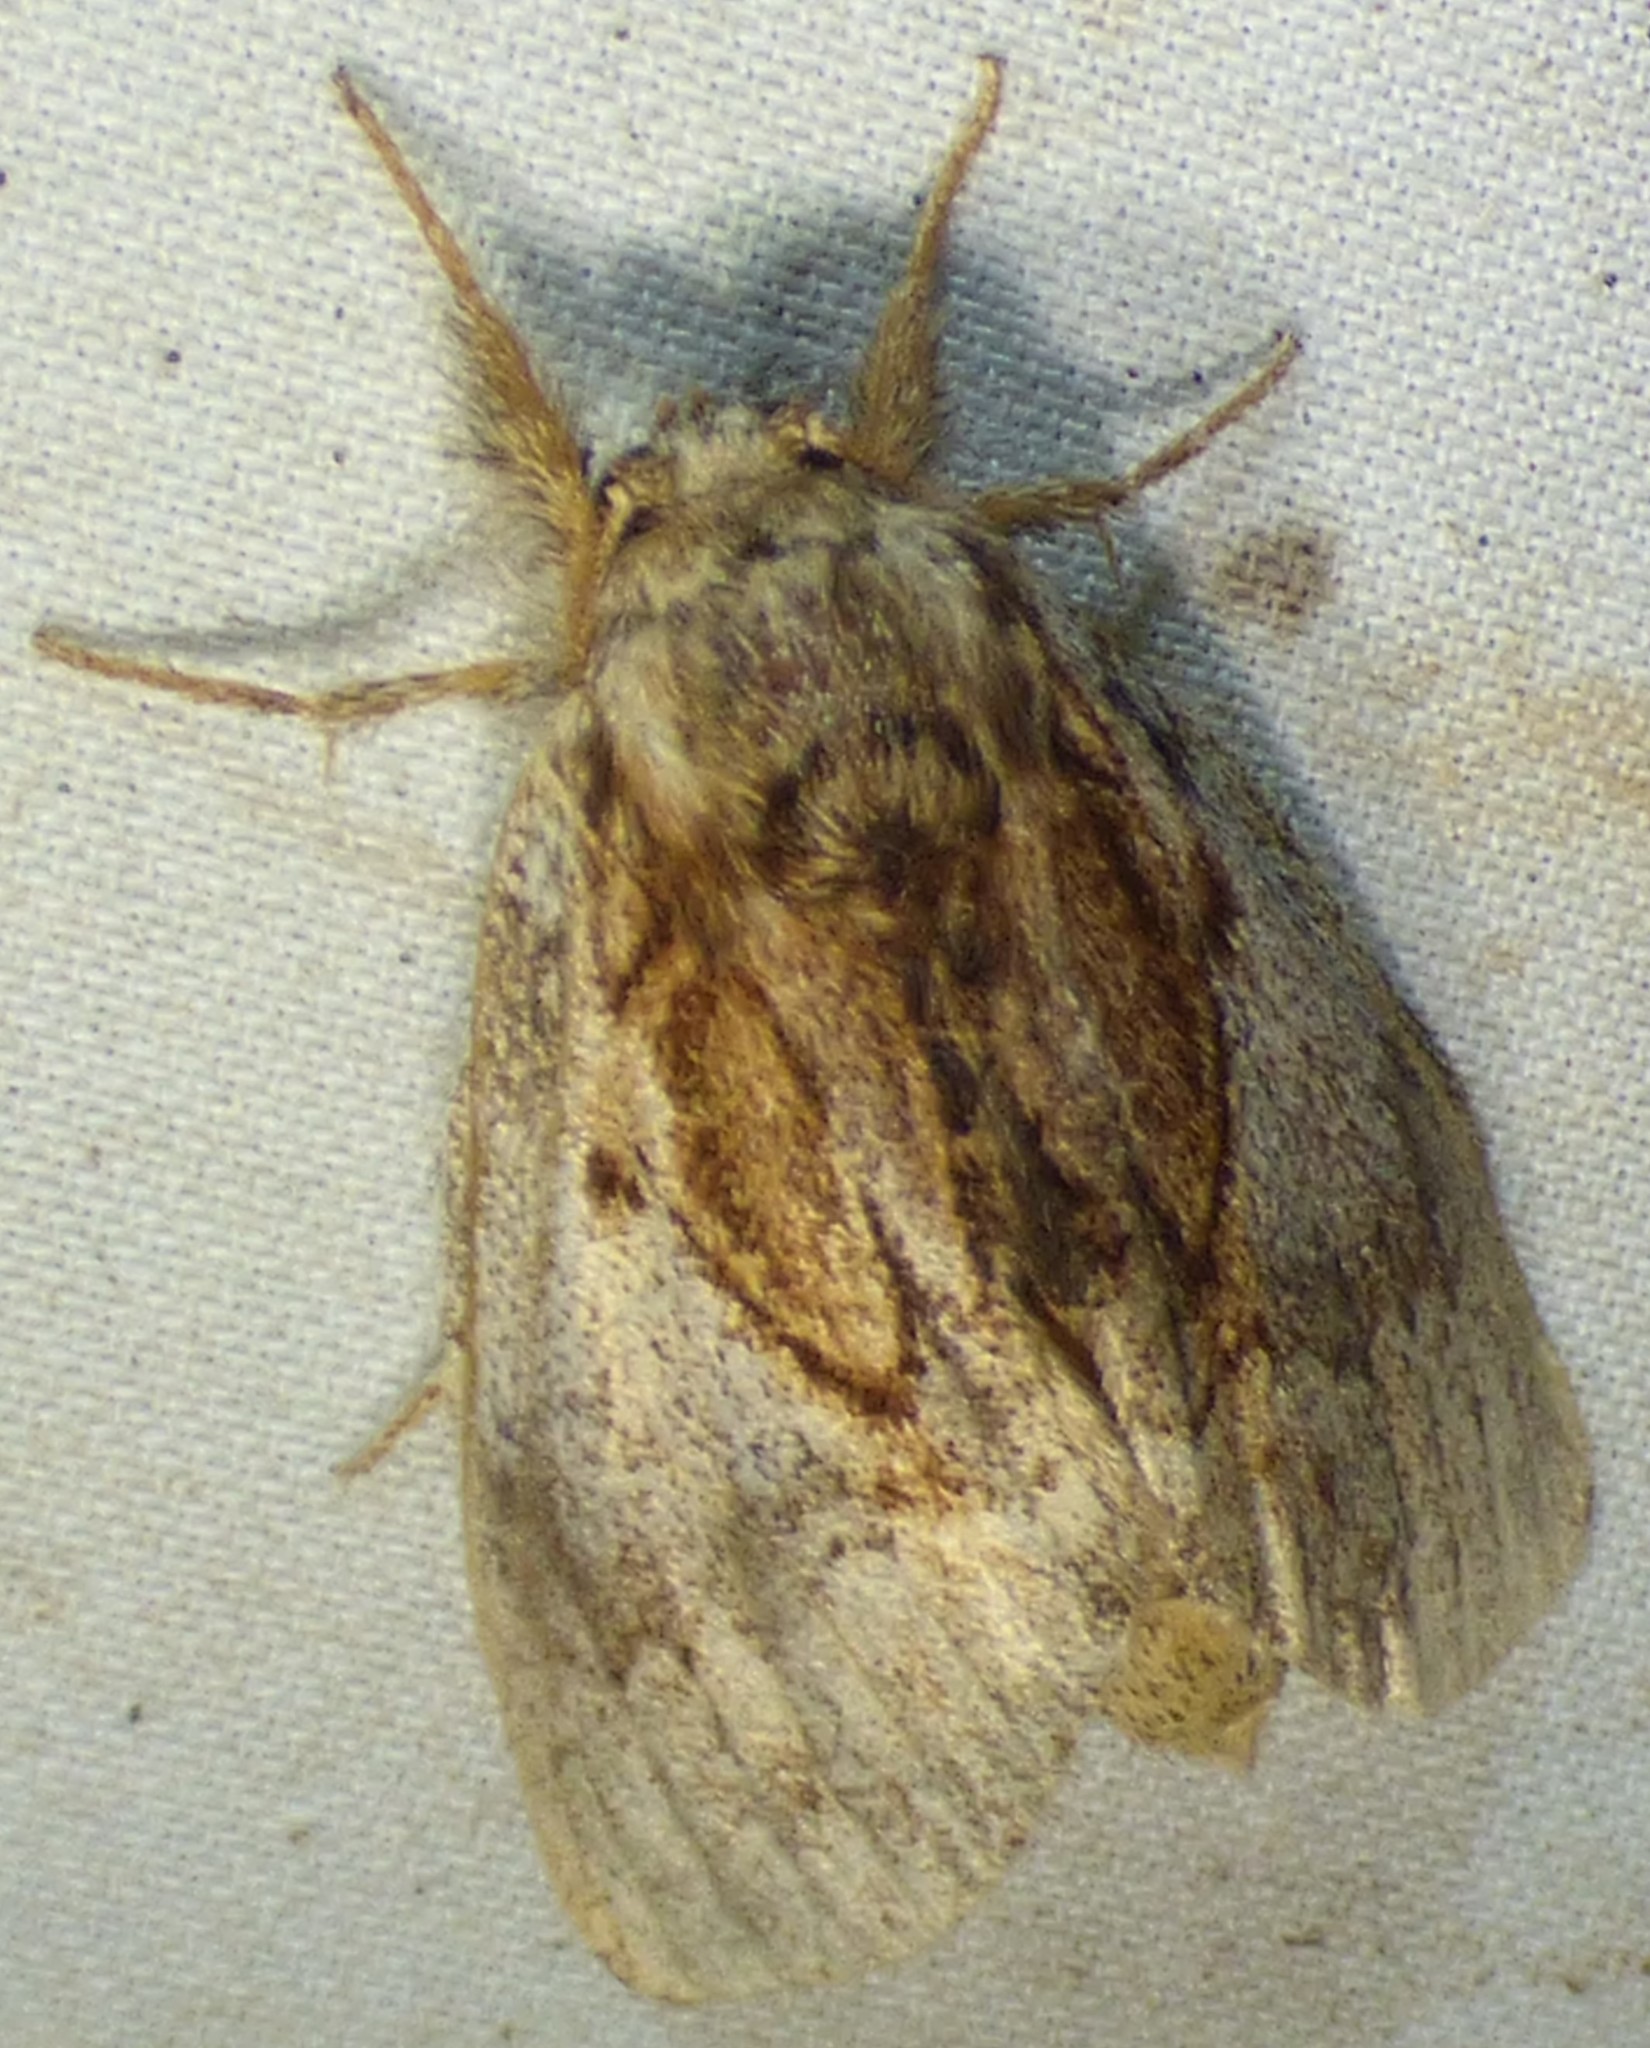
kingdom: Animalia
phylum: Arthropoda
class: Insecta
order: Lepidoptera
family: Notodontidae
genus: Peridea
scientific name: Peridea basitriens
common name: Oval-based prominent
